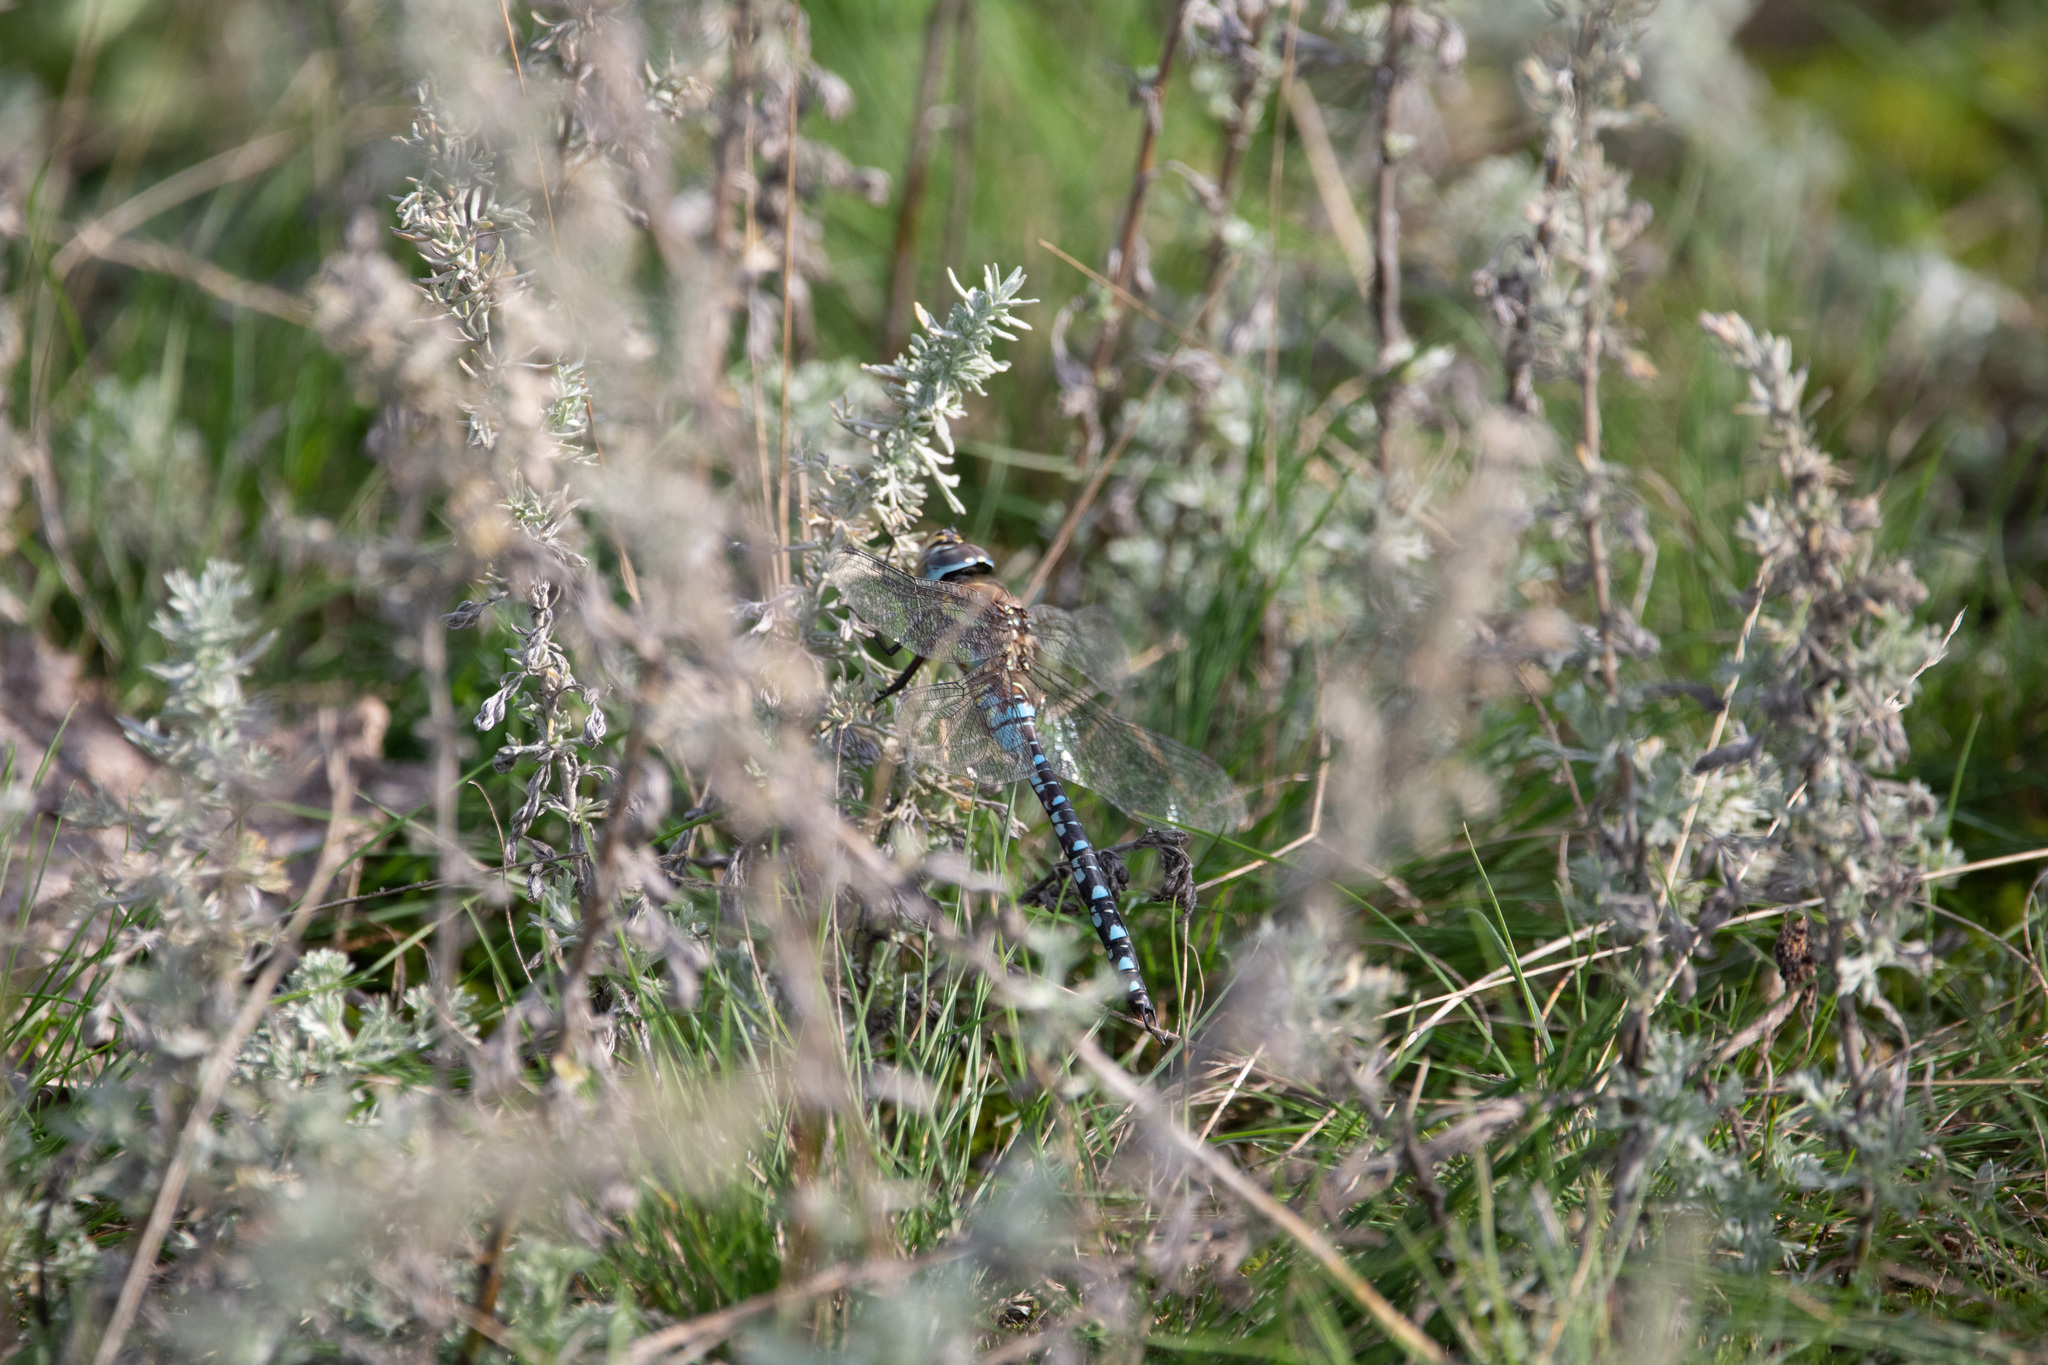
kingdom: Animalia
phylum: Arthropoda
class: Insecta
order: Odonata
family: Aeshnidae
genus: Aeshna
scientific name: Aeshna mixta
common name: Migrant hawker
